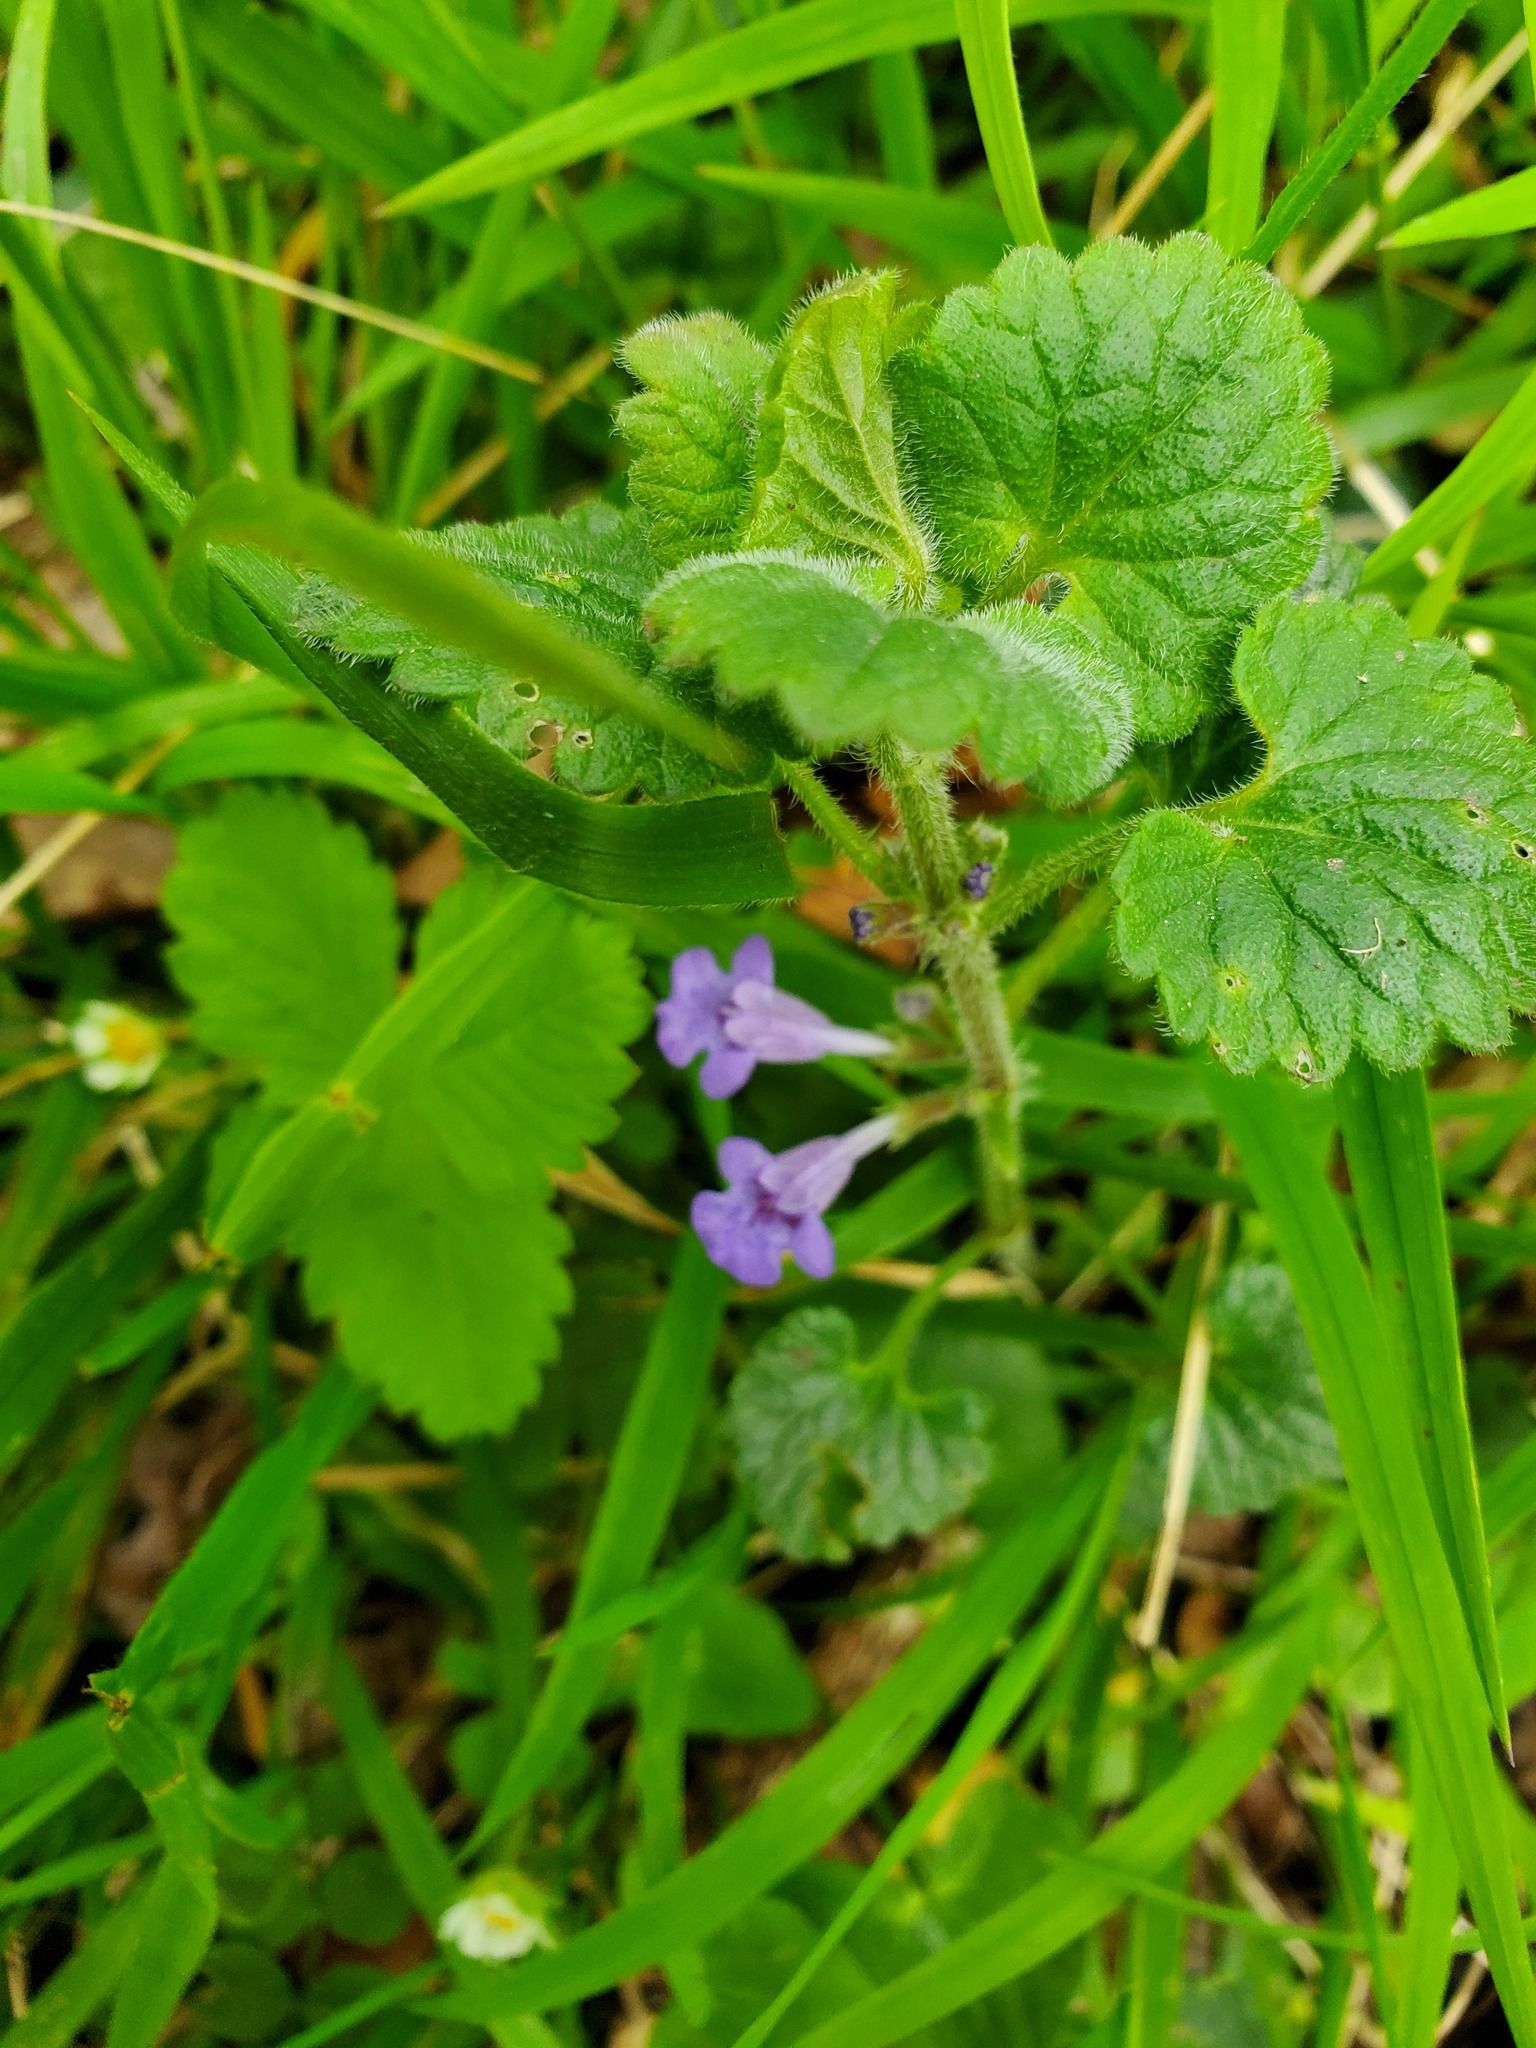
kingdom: Plantae
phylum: Tracheophyta
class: Magnoliopsida
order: Lamiales
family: Lamiaceae
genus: Glechoma
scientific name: Glechoma hederacea
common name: Ground ivy
